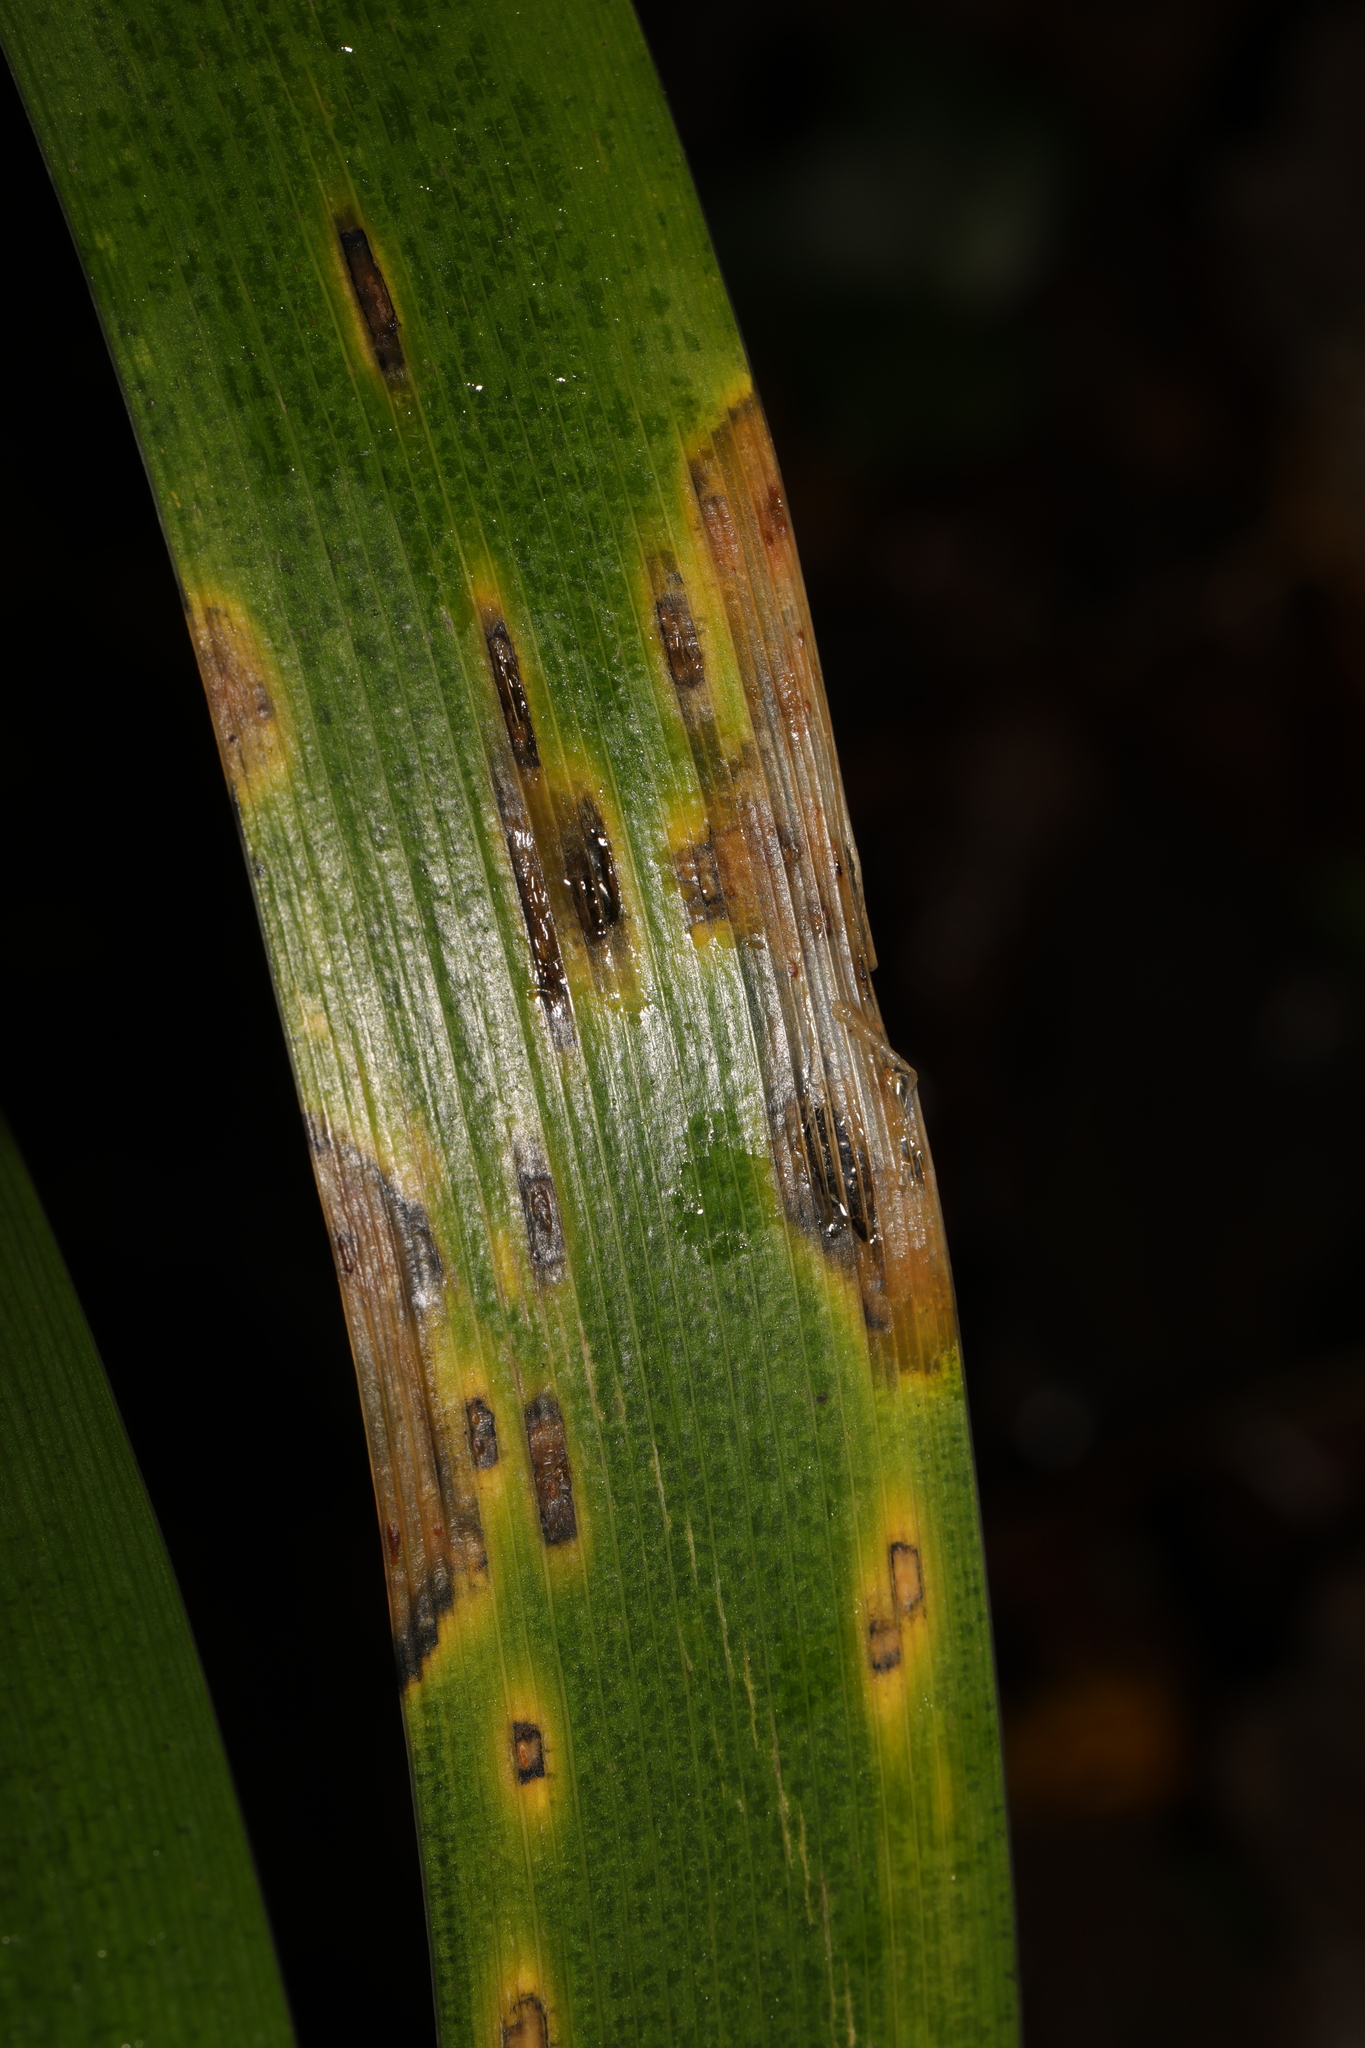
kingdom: Fungi
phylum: Basidiomycota
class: Pucciniomycetes
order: Pucciniales
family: Pucciniaceae
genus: Puccinia
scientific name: Puccinia iridis
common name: Iris rust
